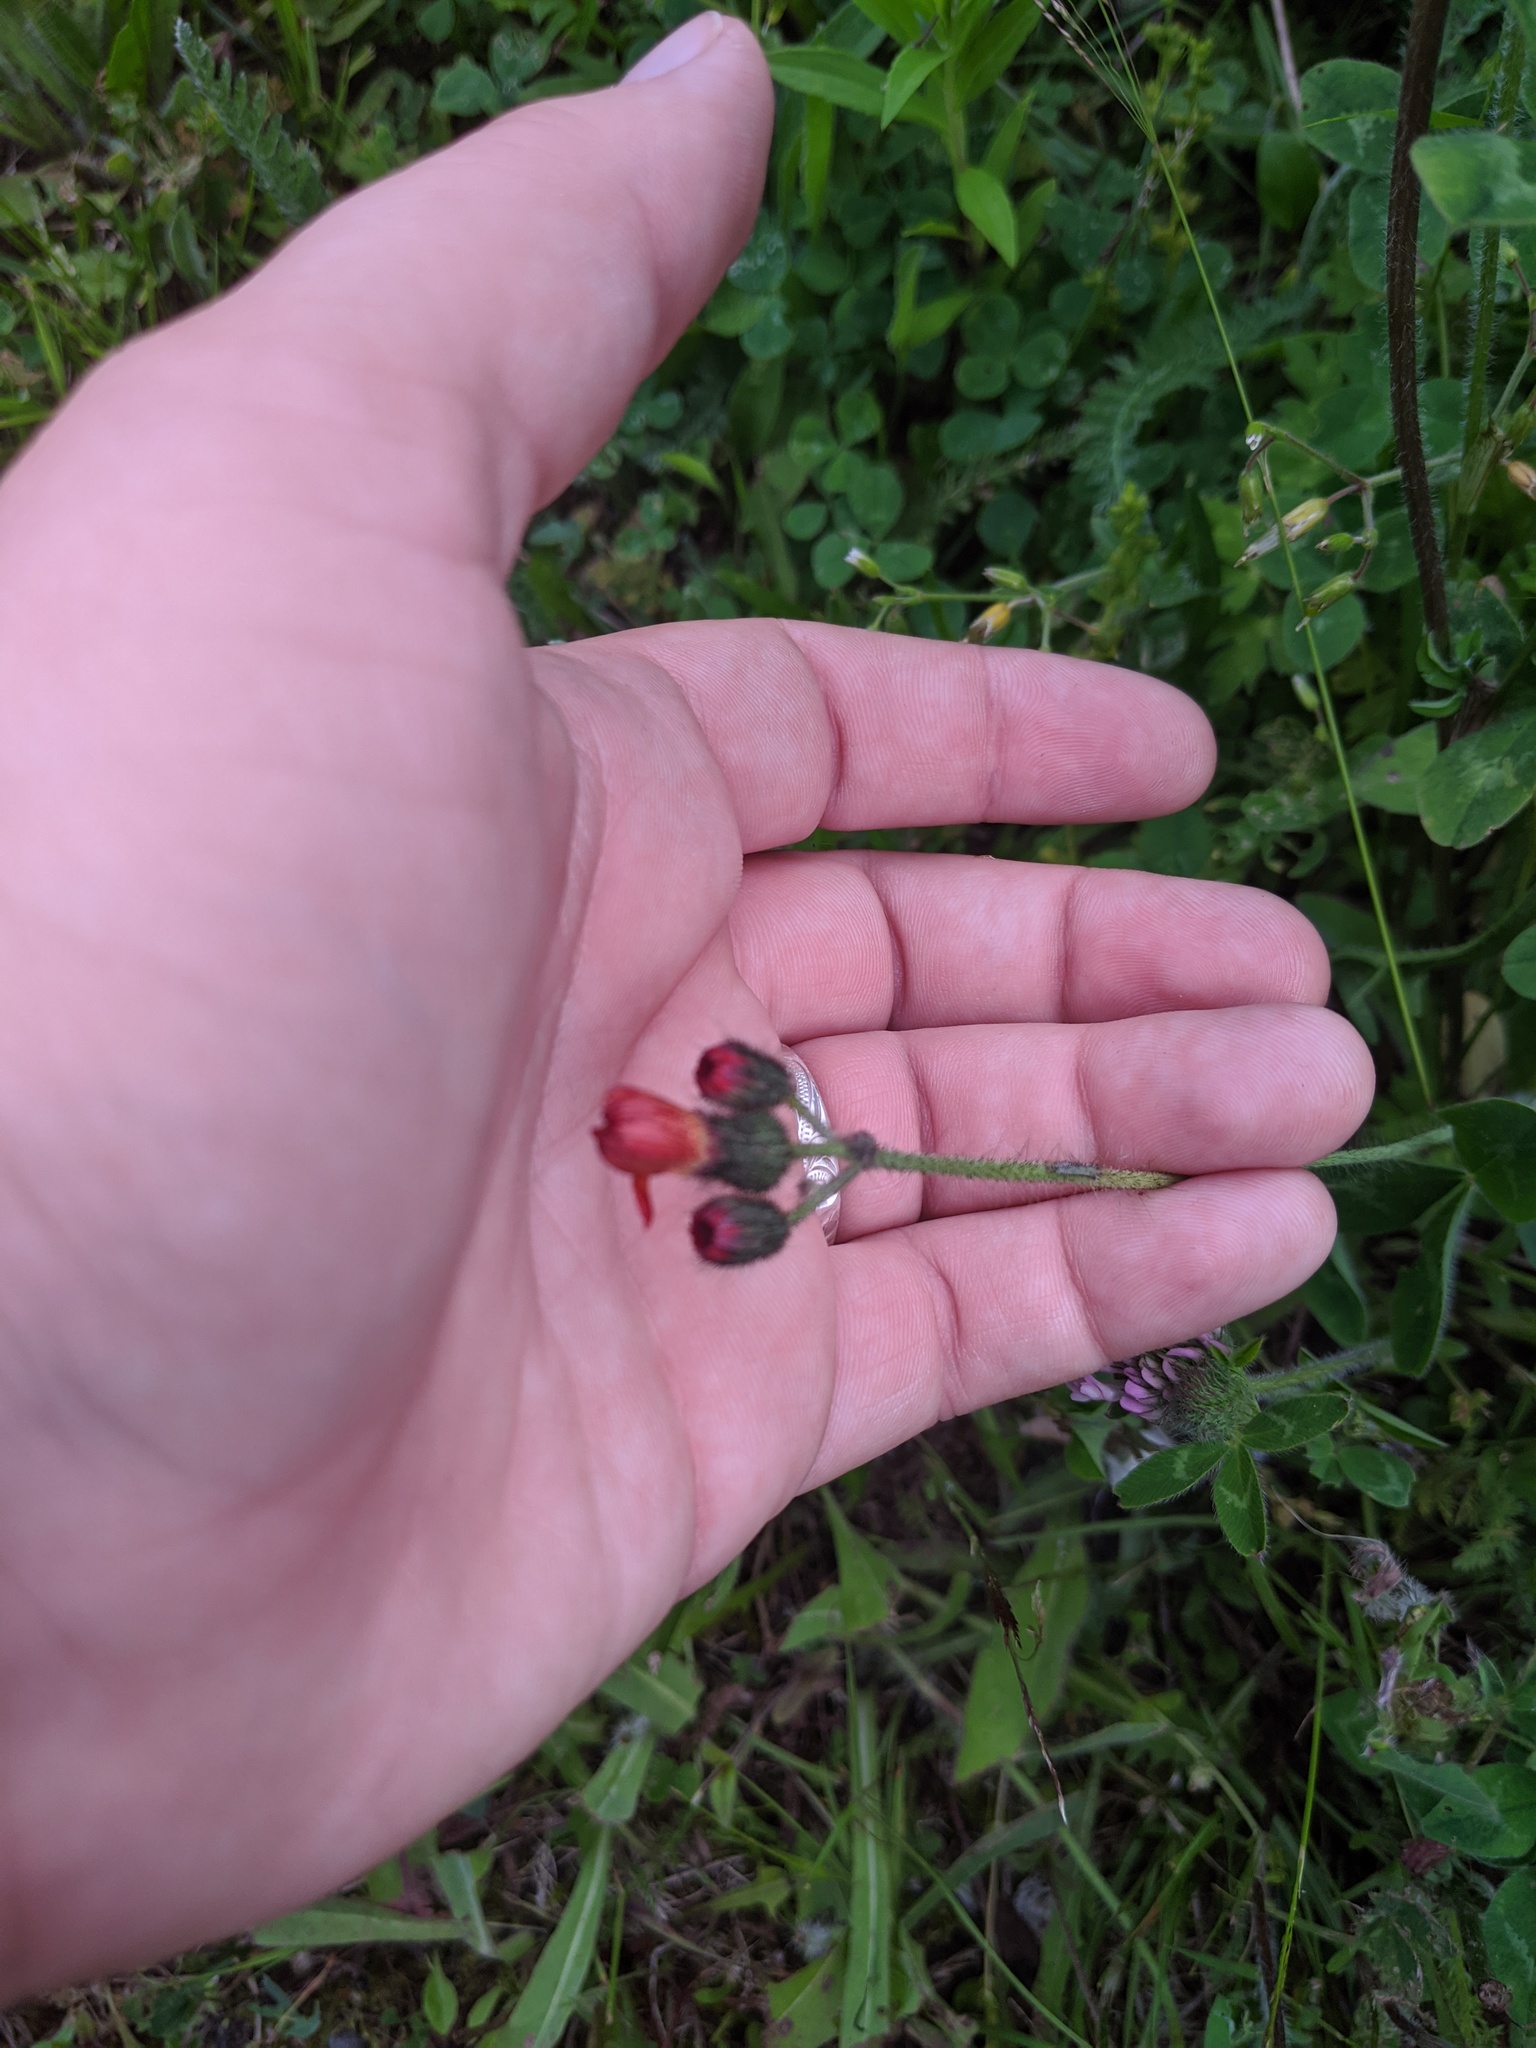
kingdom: Plantae
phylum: Tracheophyta
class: Magnoliopsida
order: Asterales
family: Asteraceae
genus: Pilosella
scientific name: Pilosella aurantiaca
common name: Fox-and-cubs
